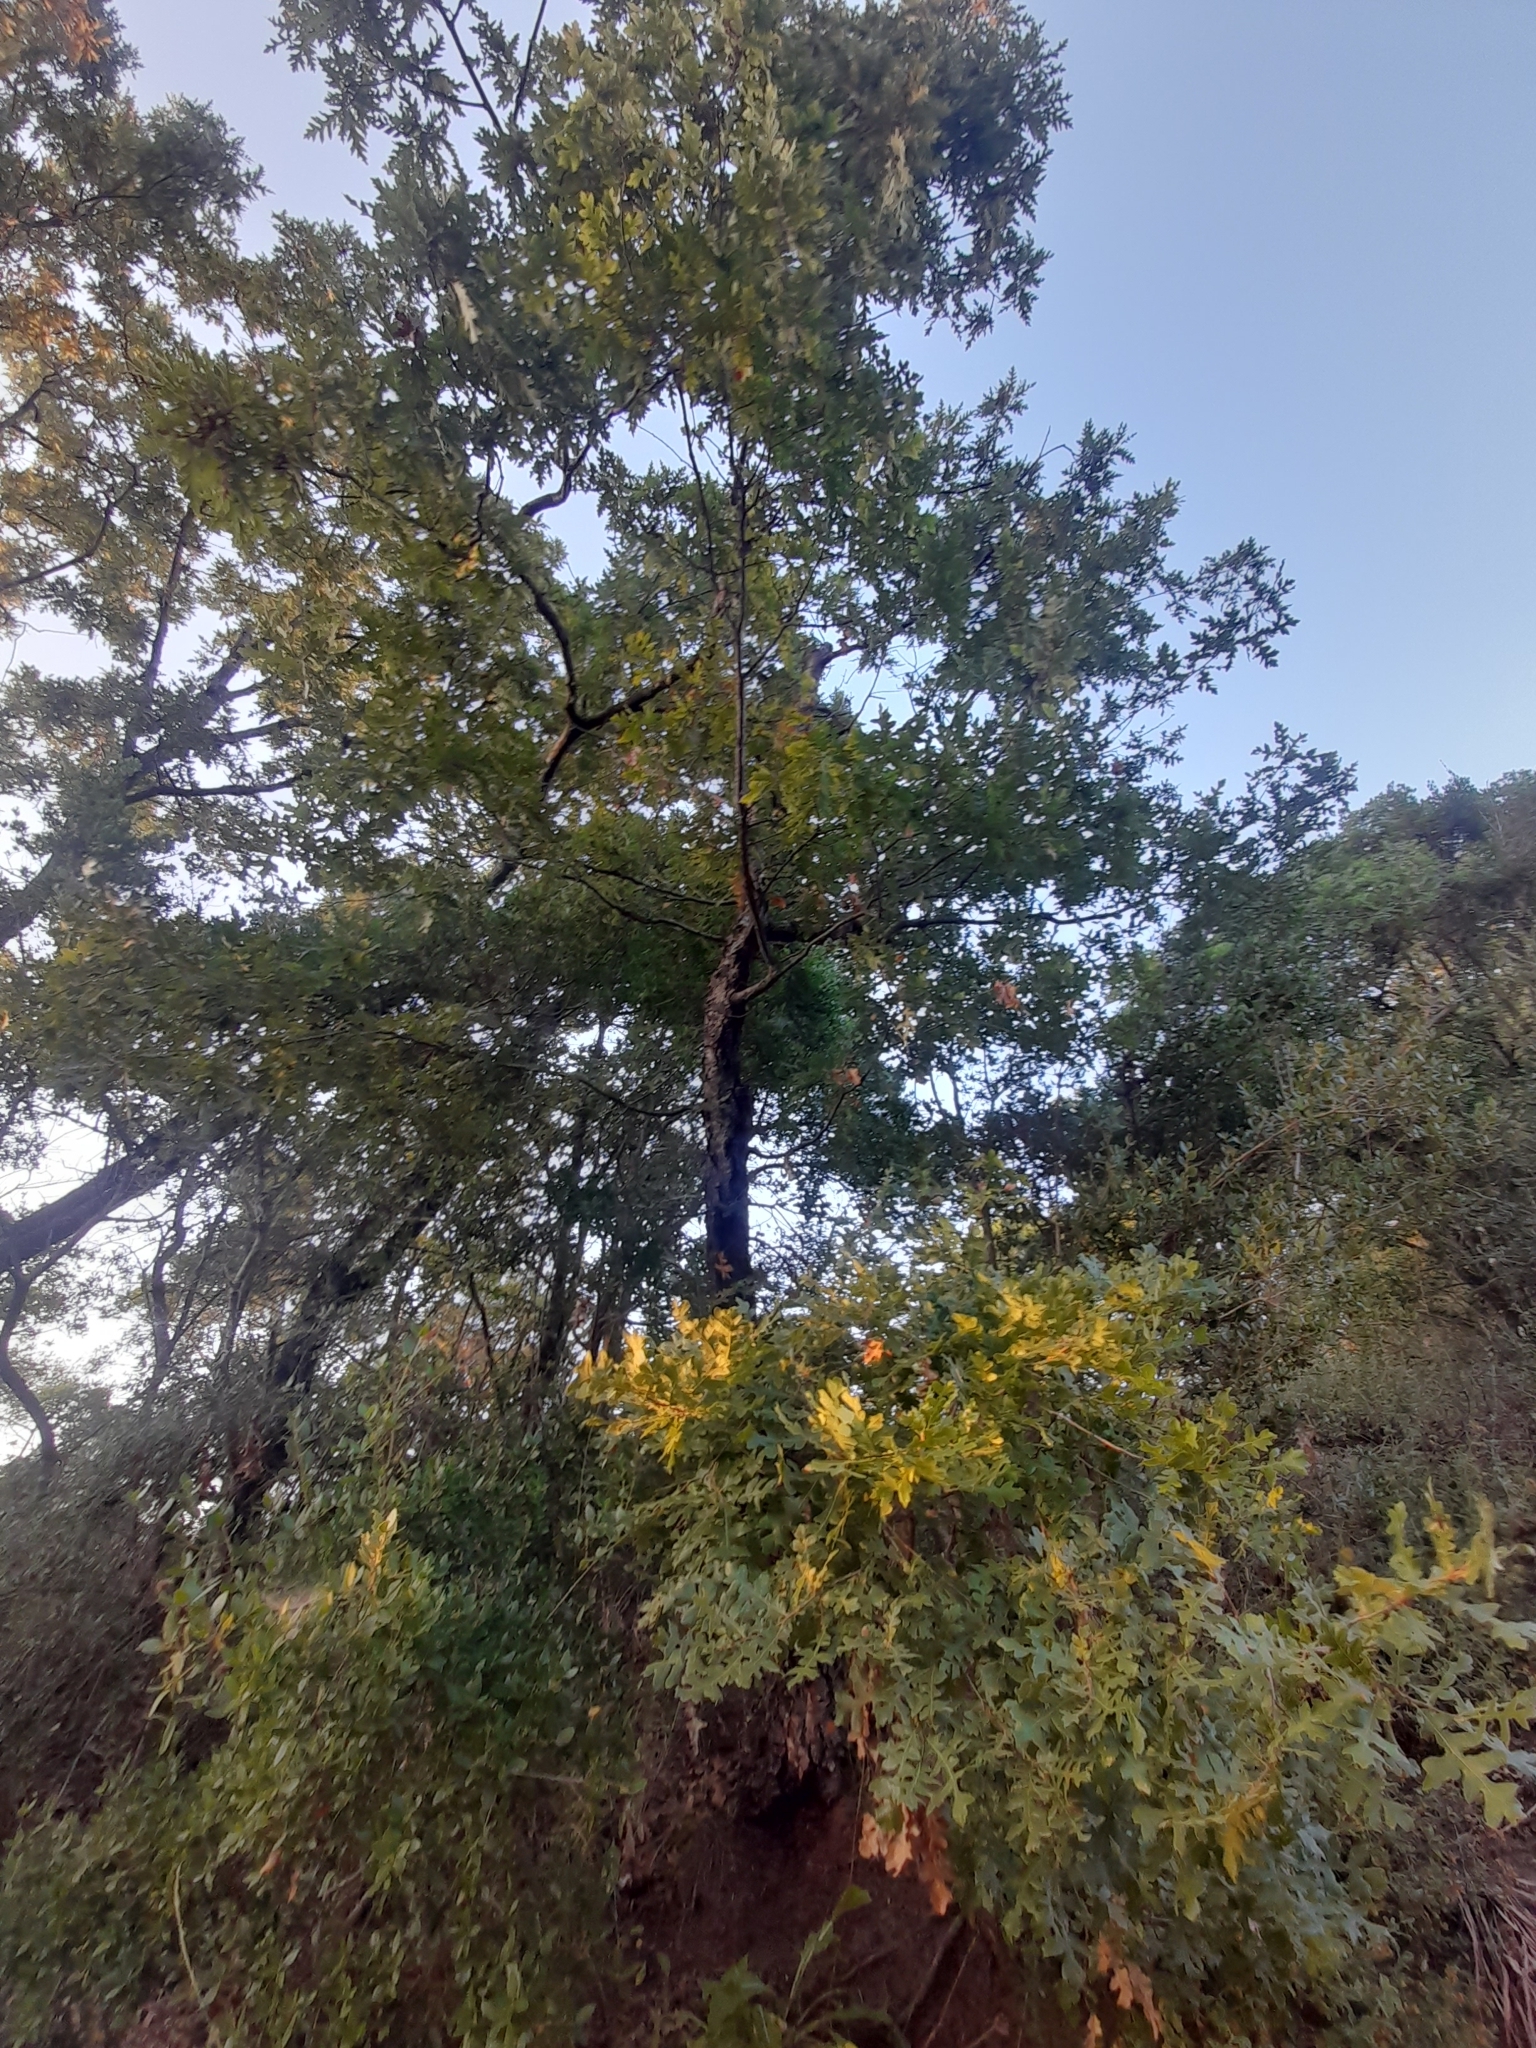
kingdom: Plantae
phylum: Tracheophyta
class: Magnoliopsida
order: Fagales
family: Fagaceae
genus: Quercus
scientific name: Quercus cerris
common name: Turkey oak
